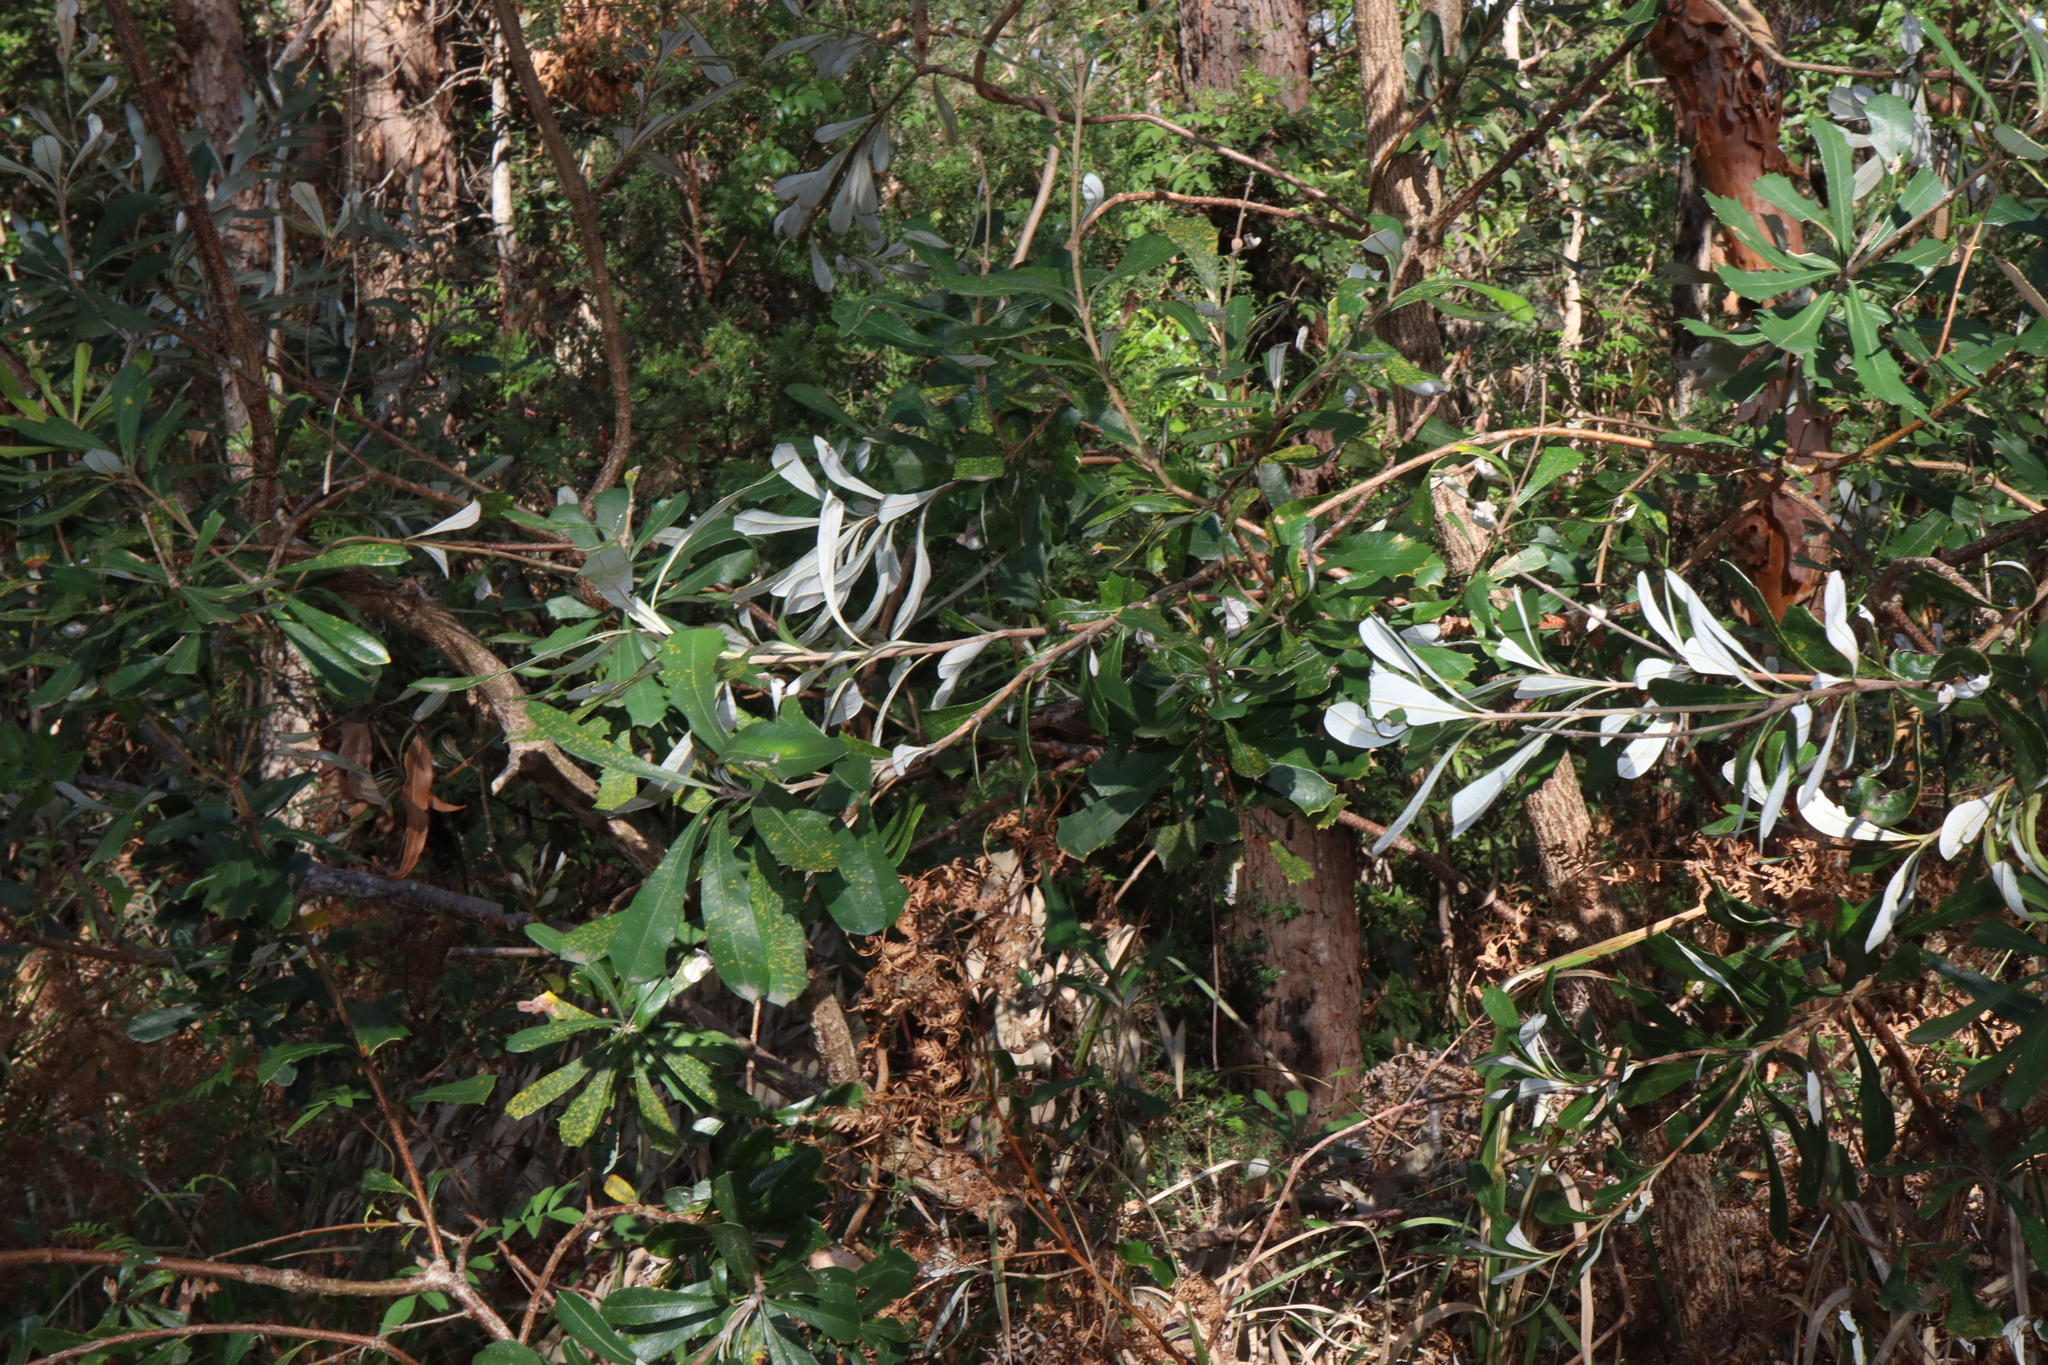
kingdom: Plantae
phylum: Tracheophyta
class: Magnoliopsida
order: Proteales
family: Proteaceae
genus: Banksia
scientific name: Banksia integrifolia
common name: White-honeysuckle
